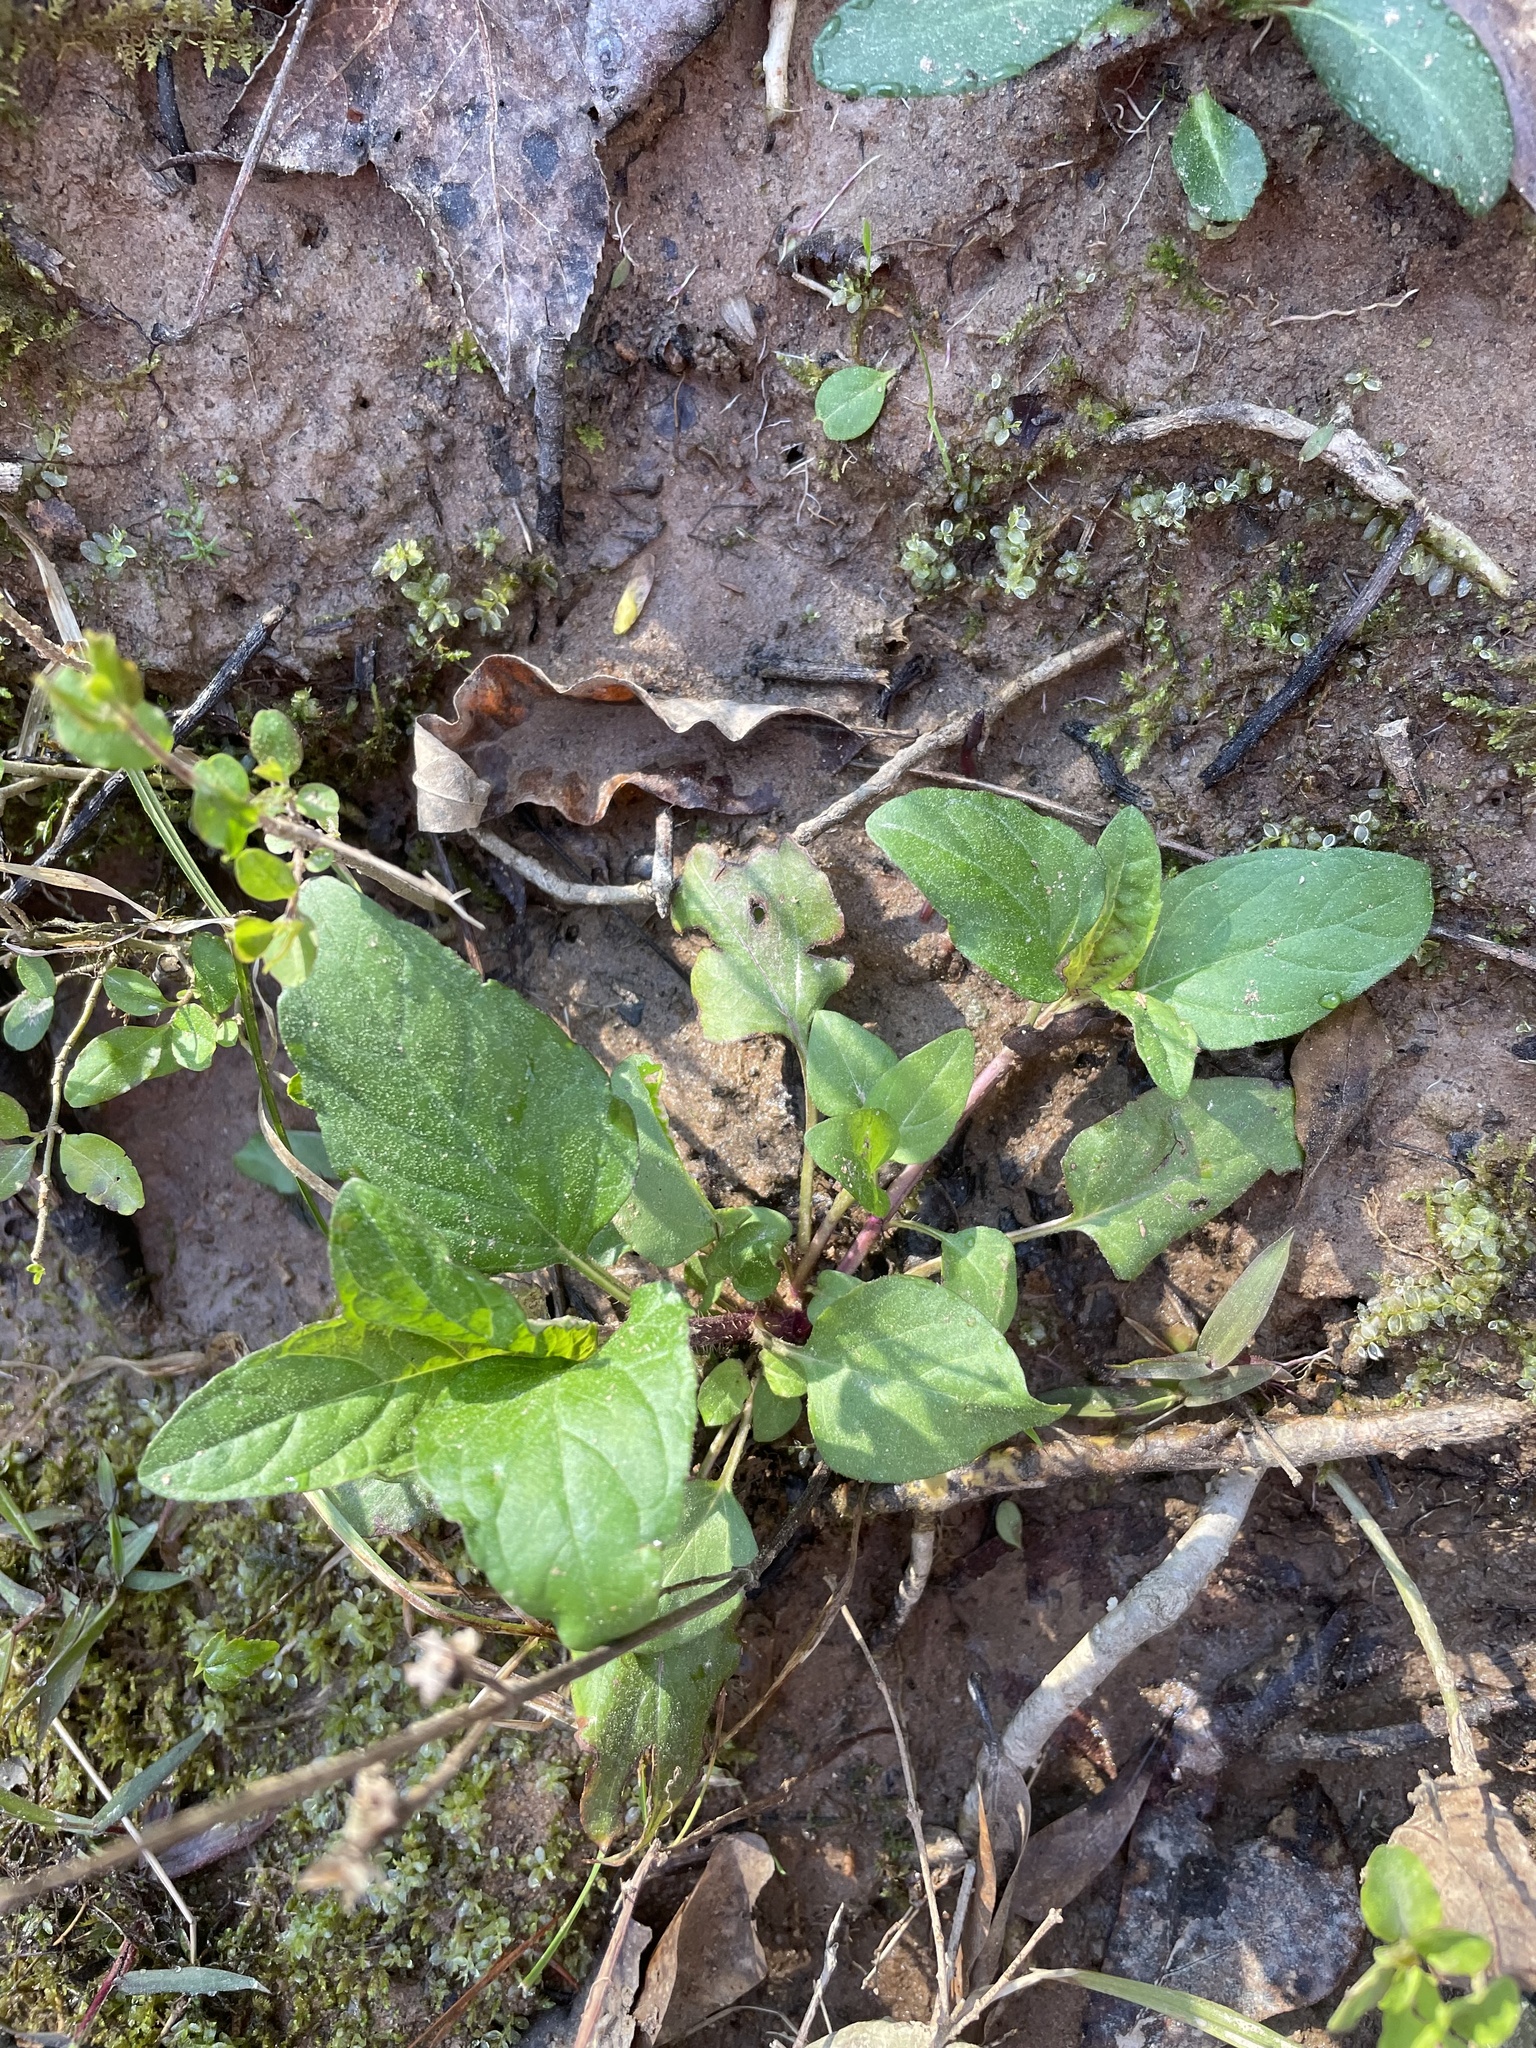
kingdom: Plantae
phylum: Tracheophyta
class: Magnoliopsida
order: Lamiales
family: Lamiaceae
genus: Prunella
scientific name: Prunella vulgaris
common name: Heal-all
